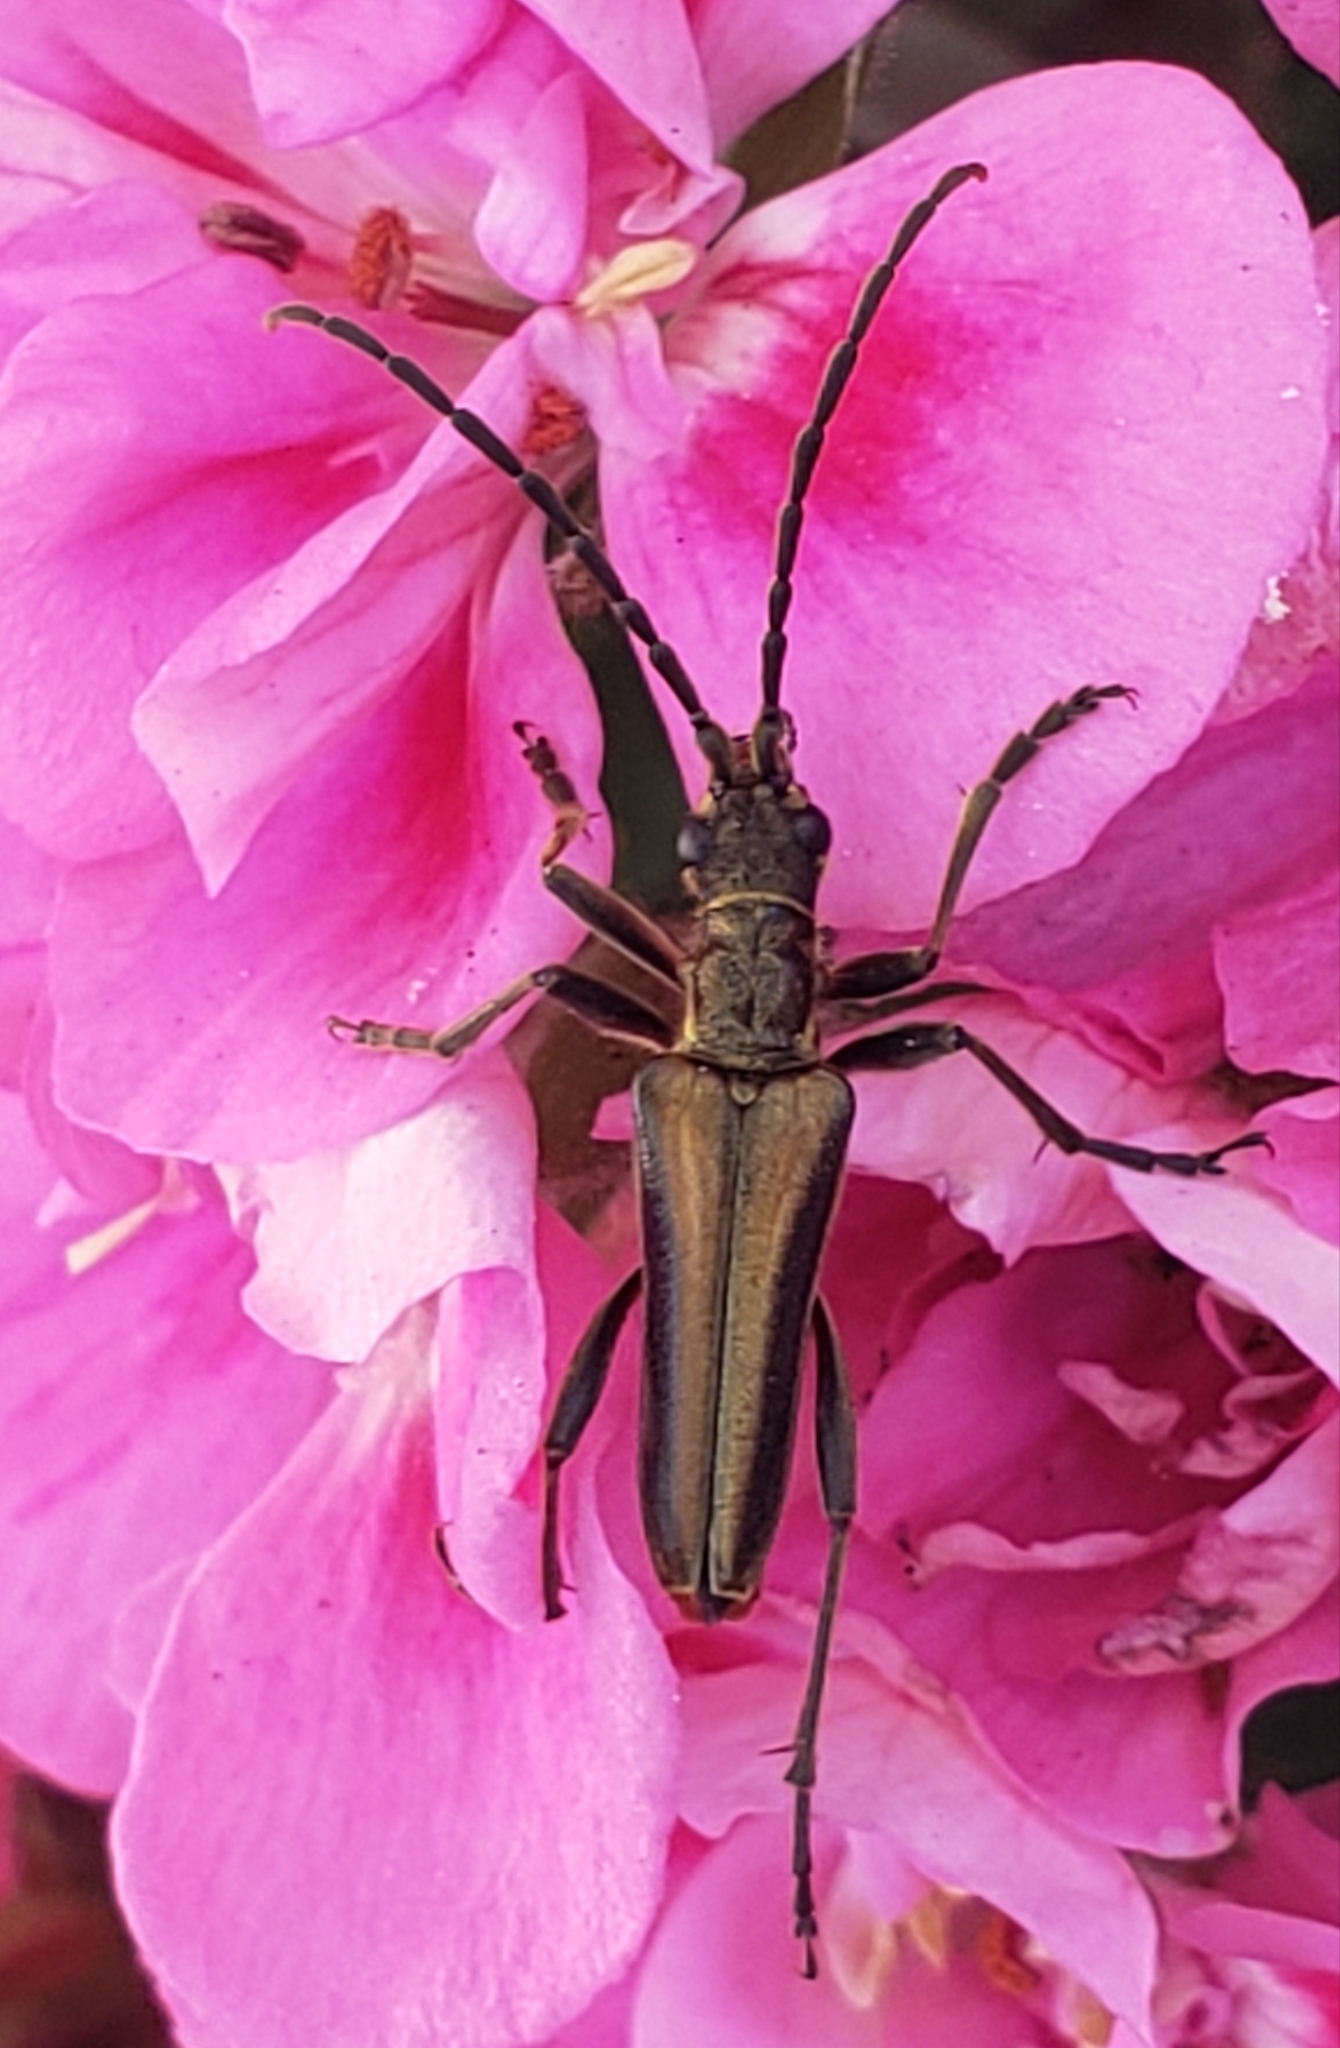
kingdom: Animalia
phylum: Arthropoda
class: Insecta
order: Coleoptera
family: Cerambycidae
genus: Stenocorus
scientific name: Stenocorus vestitus
